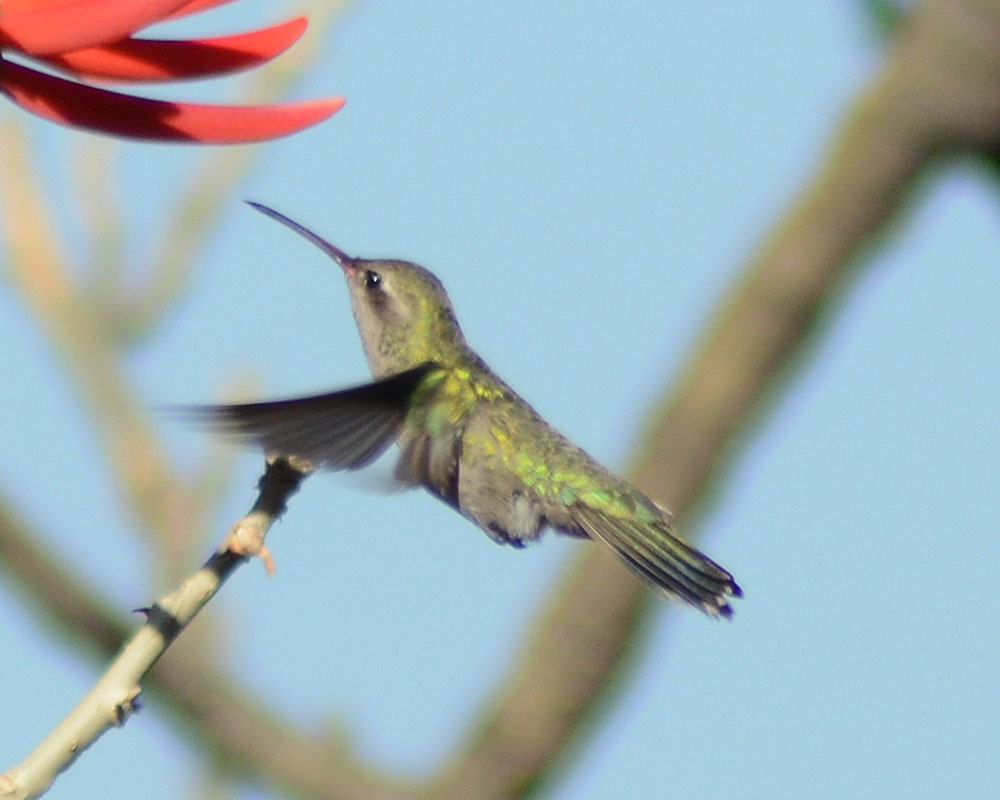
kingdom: Animalia
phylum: Chordata
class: Aves
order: Apodiformes
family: Trochilidae
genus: Cynanthus
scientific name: Cynanthus latirostris
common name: Broad-billed hummingbird
